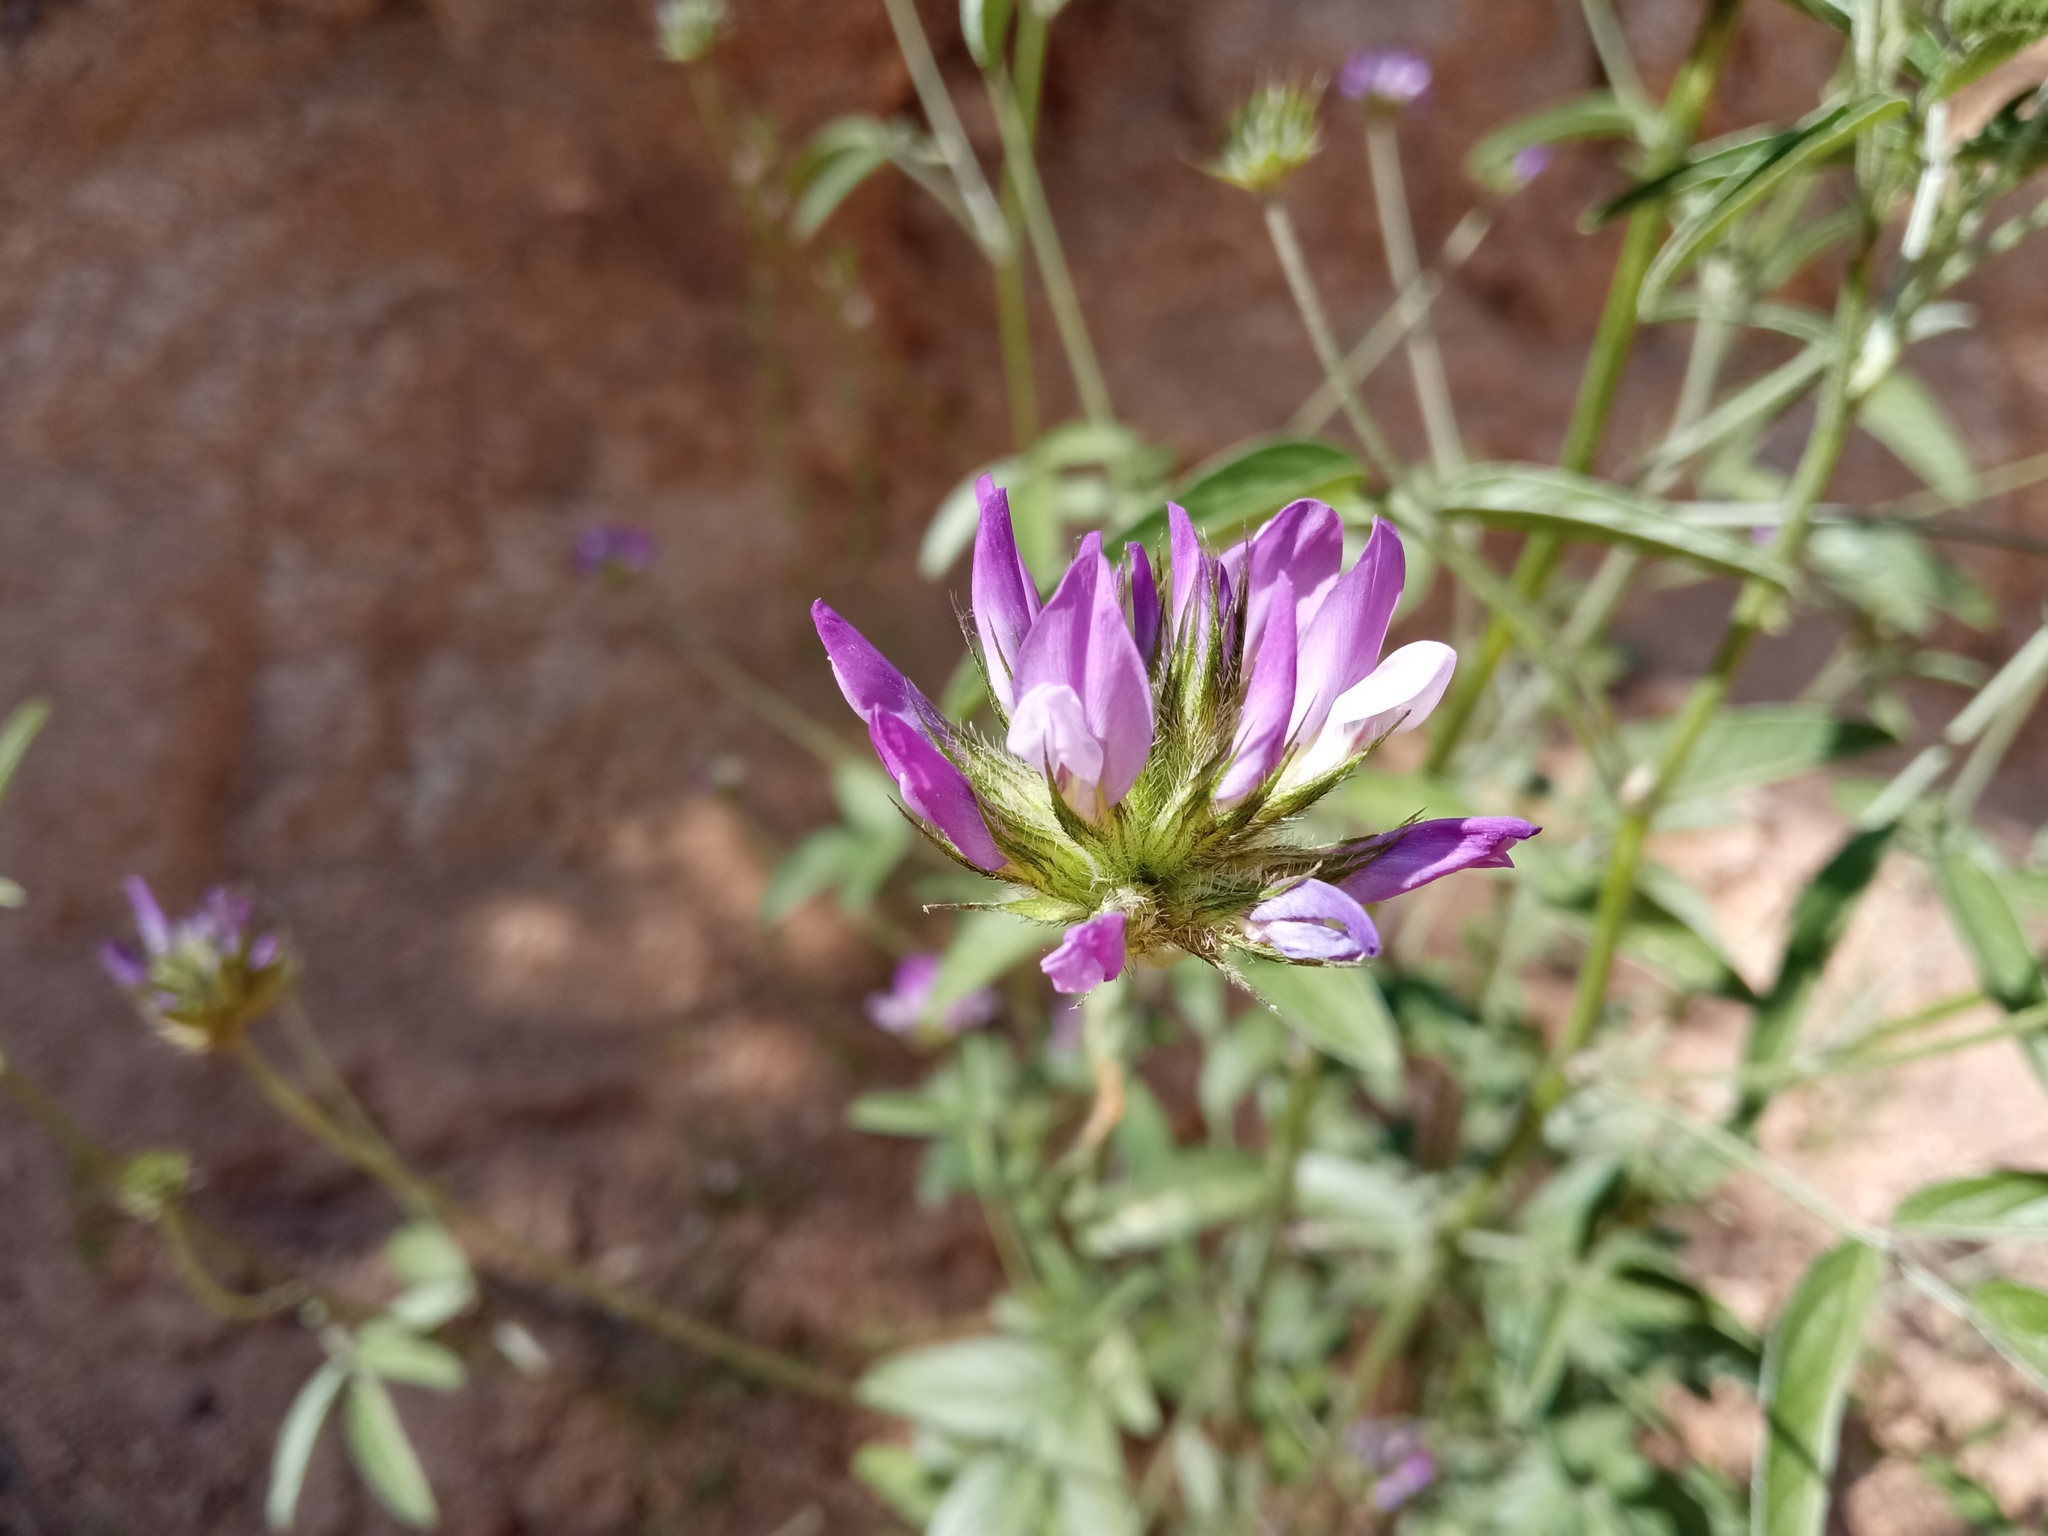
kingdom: Plantae
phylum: Tracheophyta
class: Magnoliopsida
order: Fabales
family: Fabaceae
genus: Bituminaria
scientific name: Bituminaria bituminosa
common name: Arabian pea
